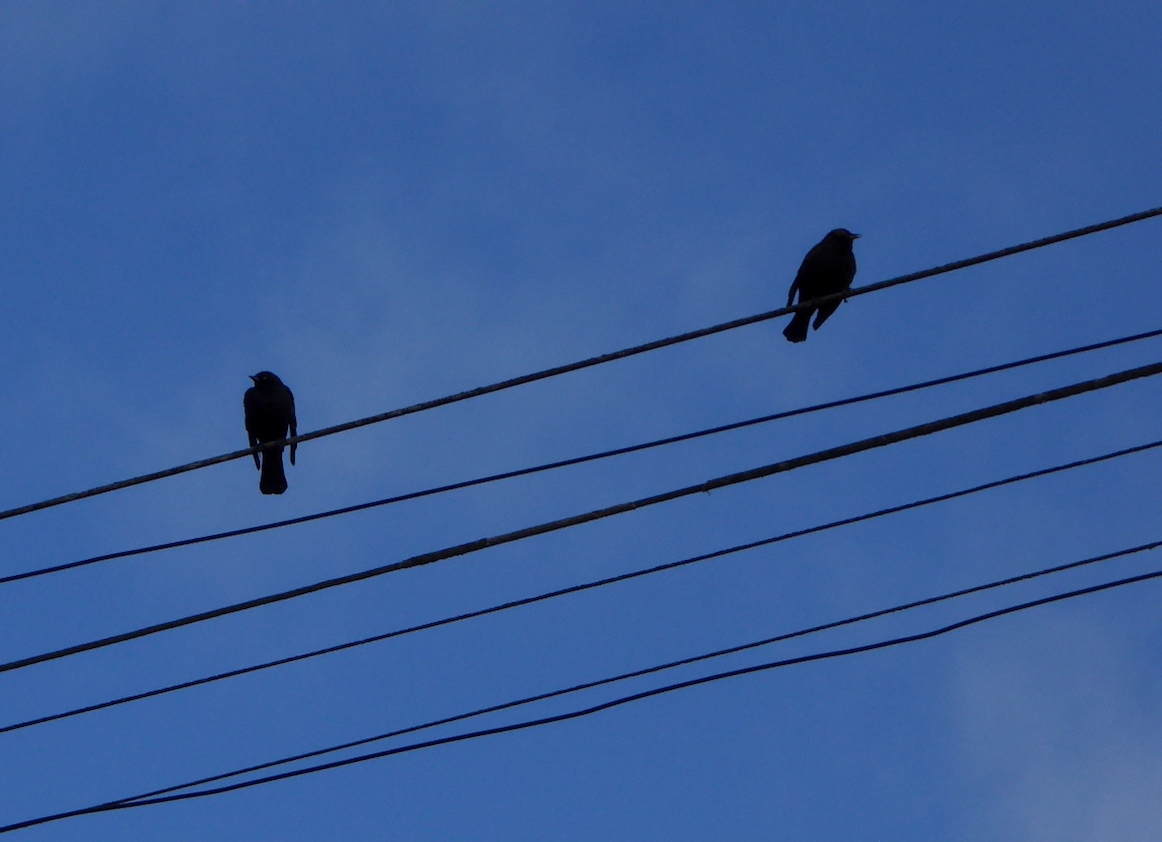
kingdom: Animalia
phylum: Chordata
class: Aves
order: Passeriformes
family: Icteridae
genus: Agelaius
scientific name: Agelaius phoeniceus
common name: Red-winged blackbird
